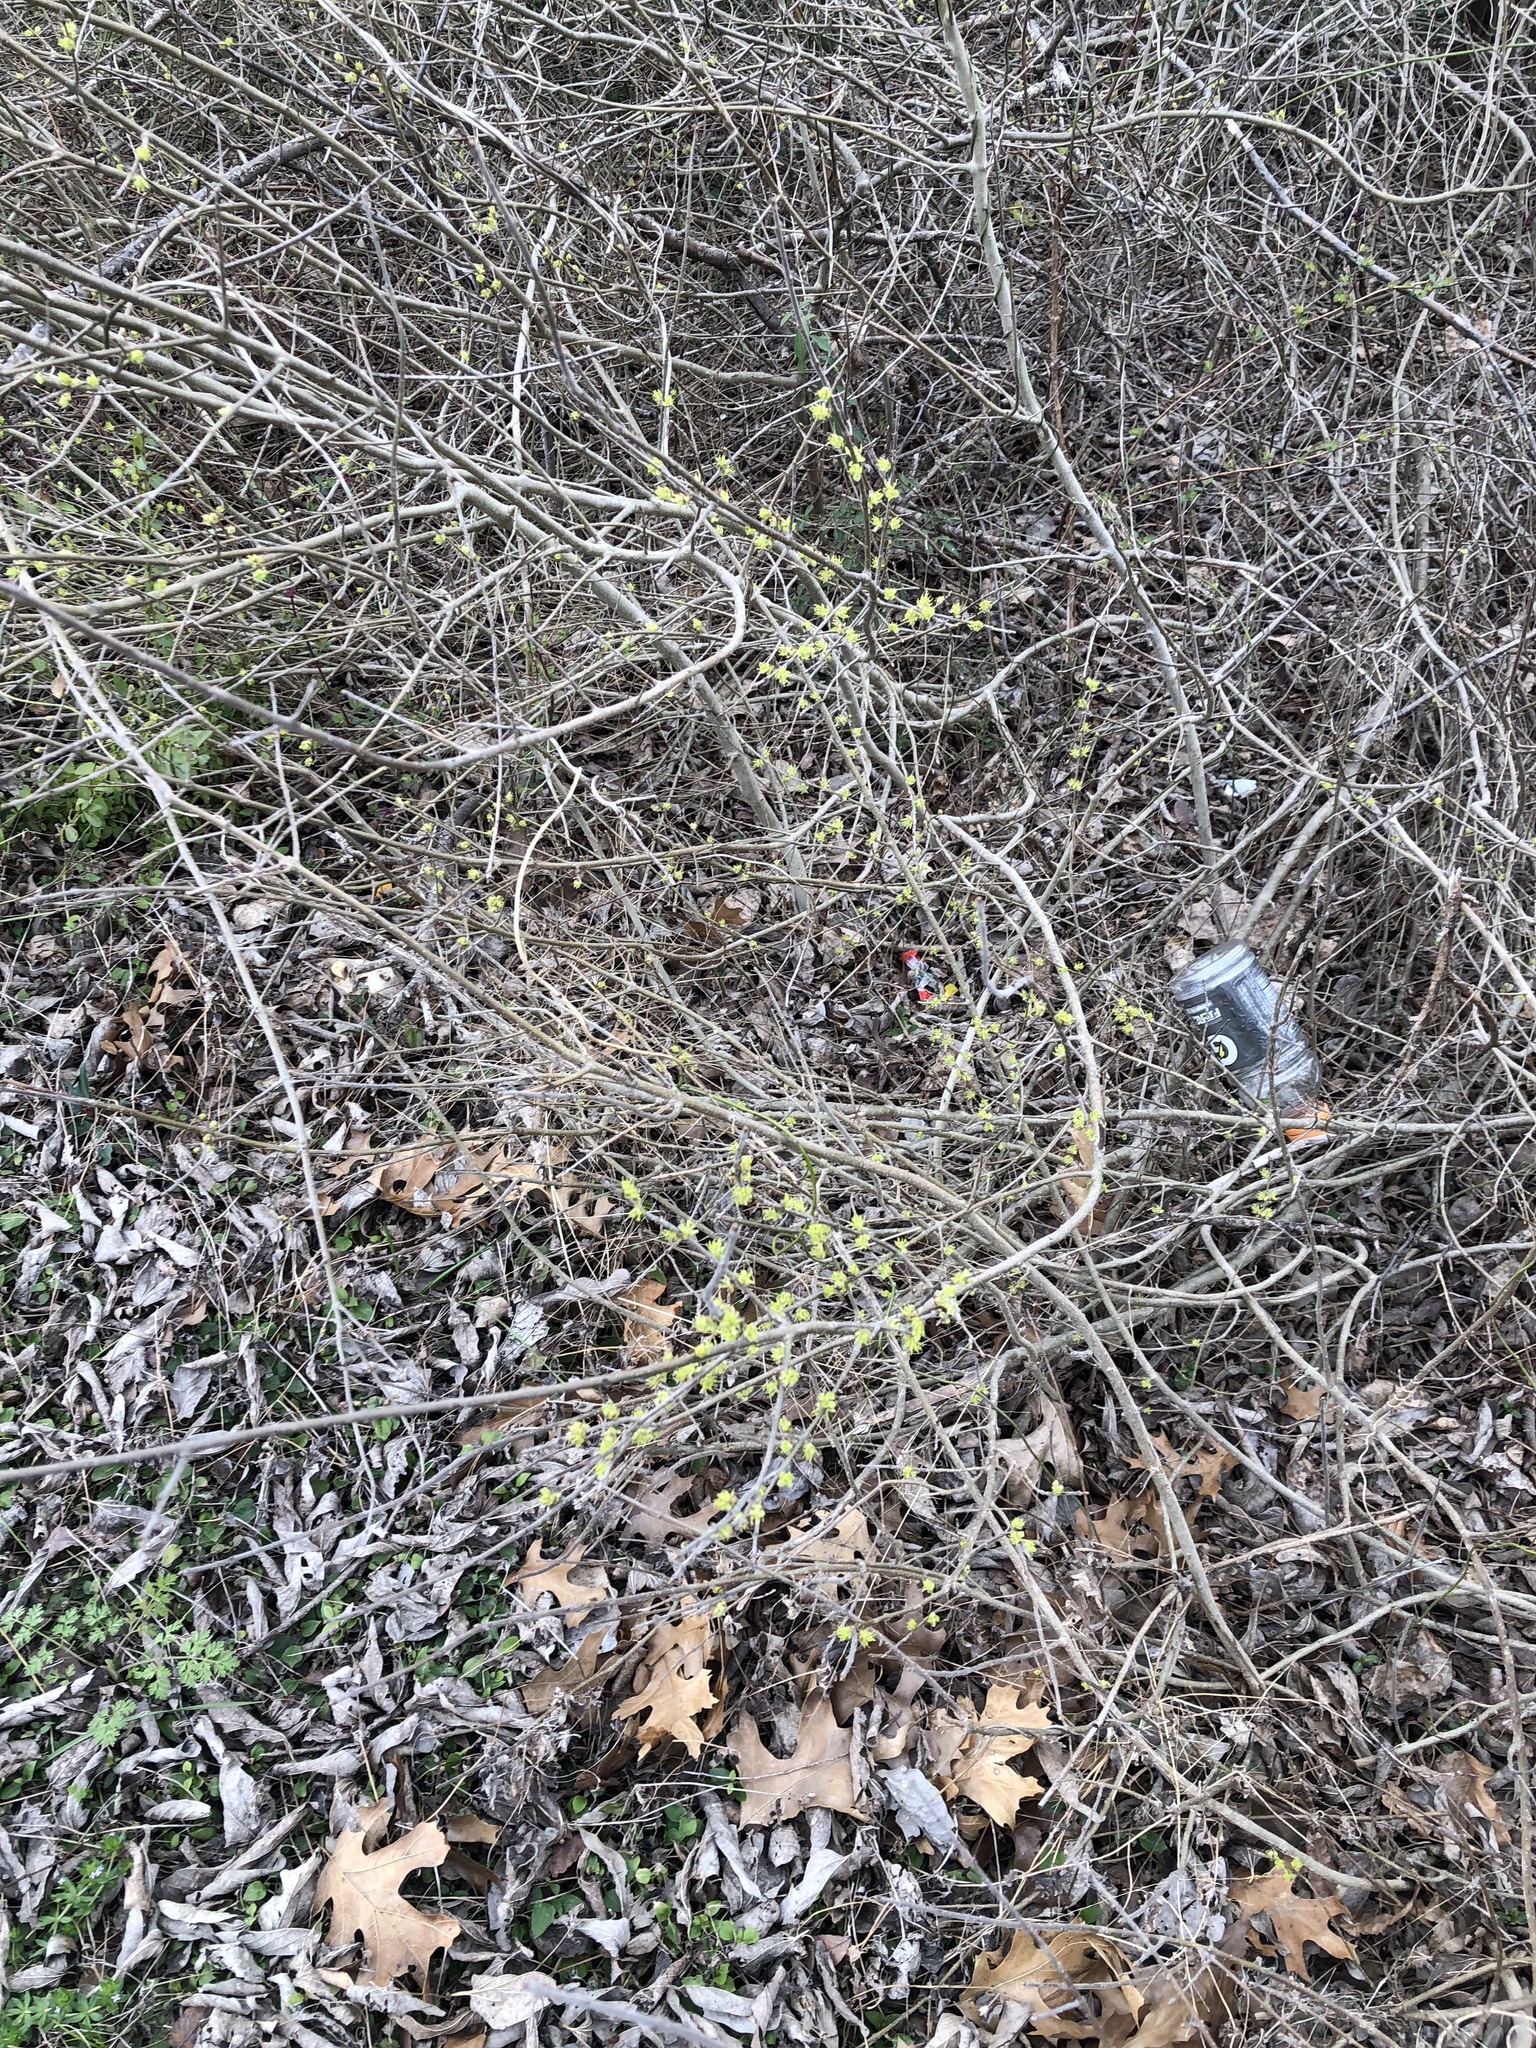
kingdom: Plantae
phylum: Tracheophyta
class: Magnoliopsida
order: Lamiales
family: Oleaceae
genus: Forestiera
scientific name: Forestiera pubescens
